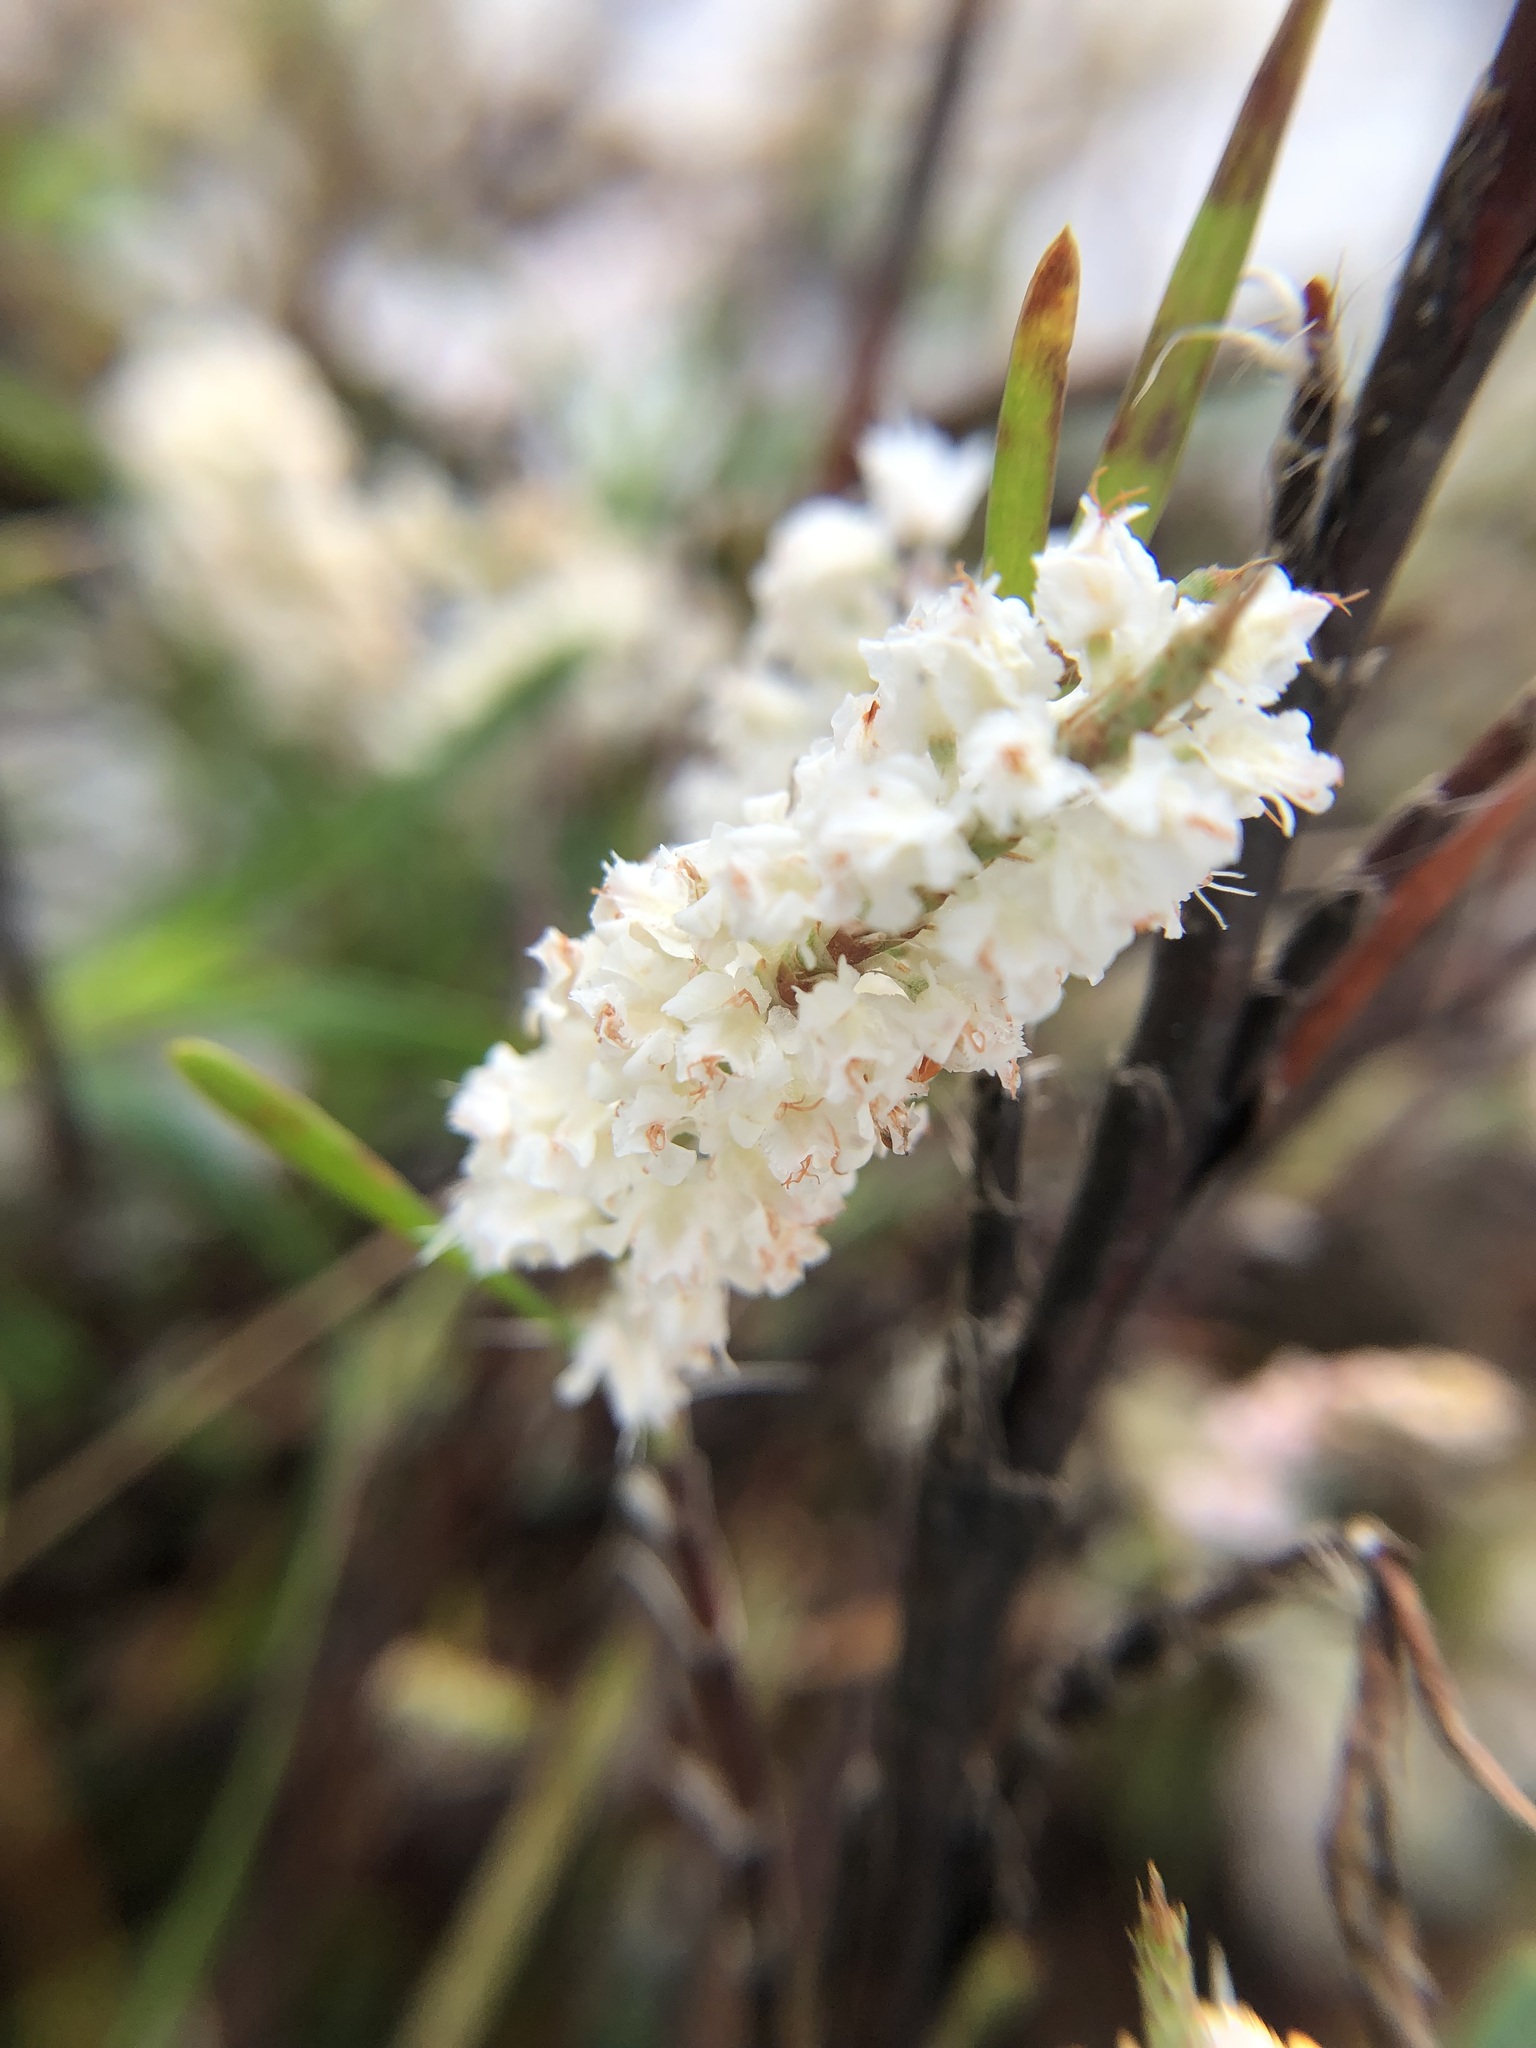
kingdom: Plantae
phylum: Tracheophyta
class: Magnoliopsida
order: Caryophyllales
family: Polygonaceae
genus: Polygonella
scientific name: Polygonella robusta
